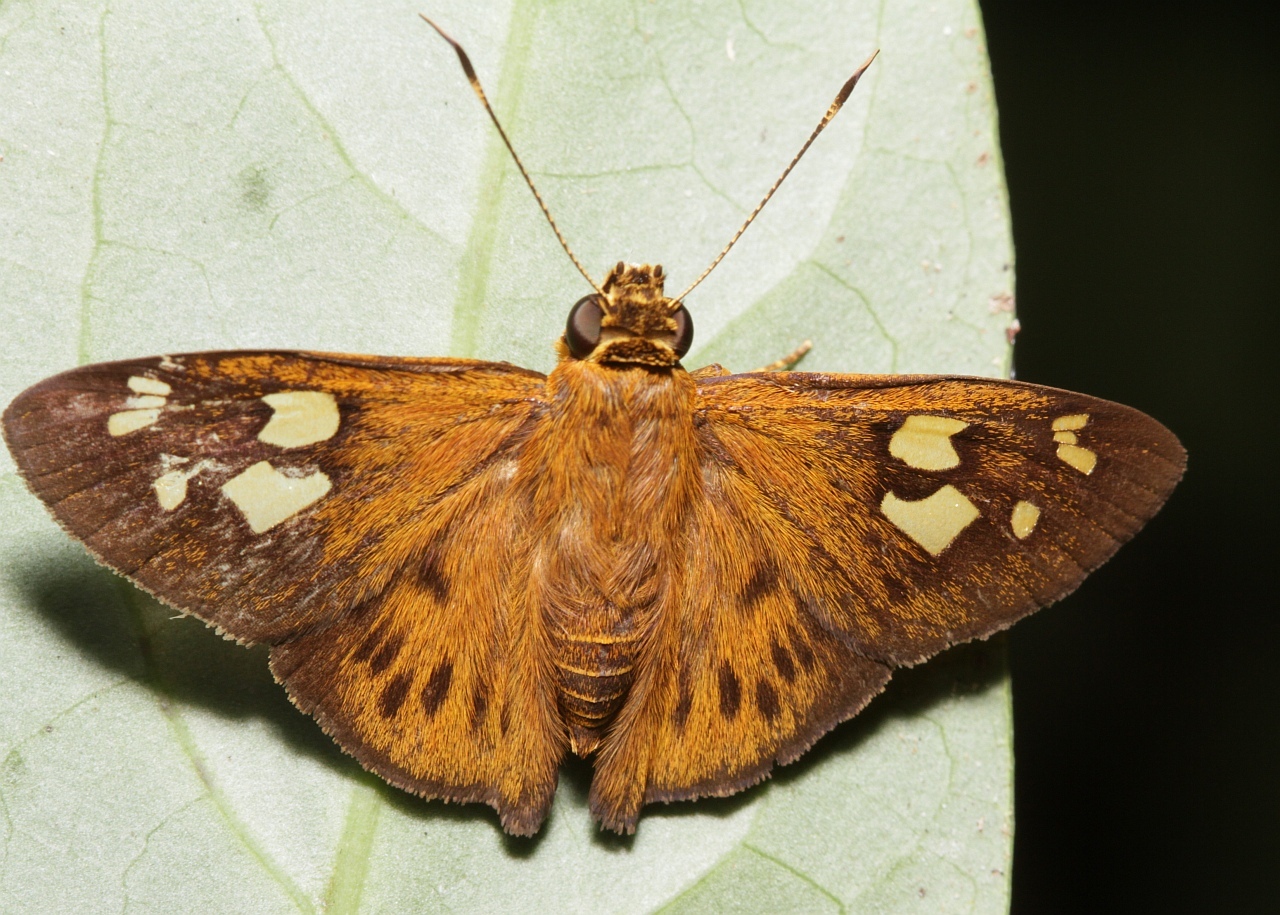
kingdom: Animalia
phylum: Arthropoda
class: Insecta
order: Lepidoptera
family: Hesperiidae
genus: Ablepsis
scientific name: Ablepsis azines
